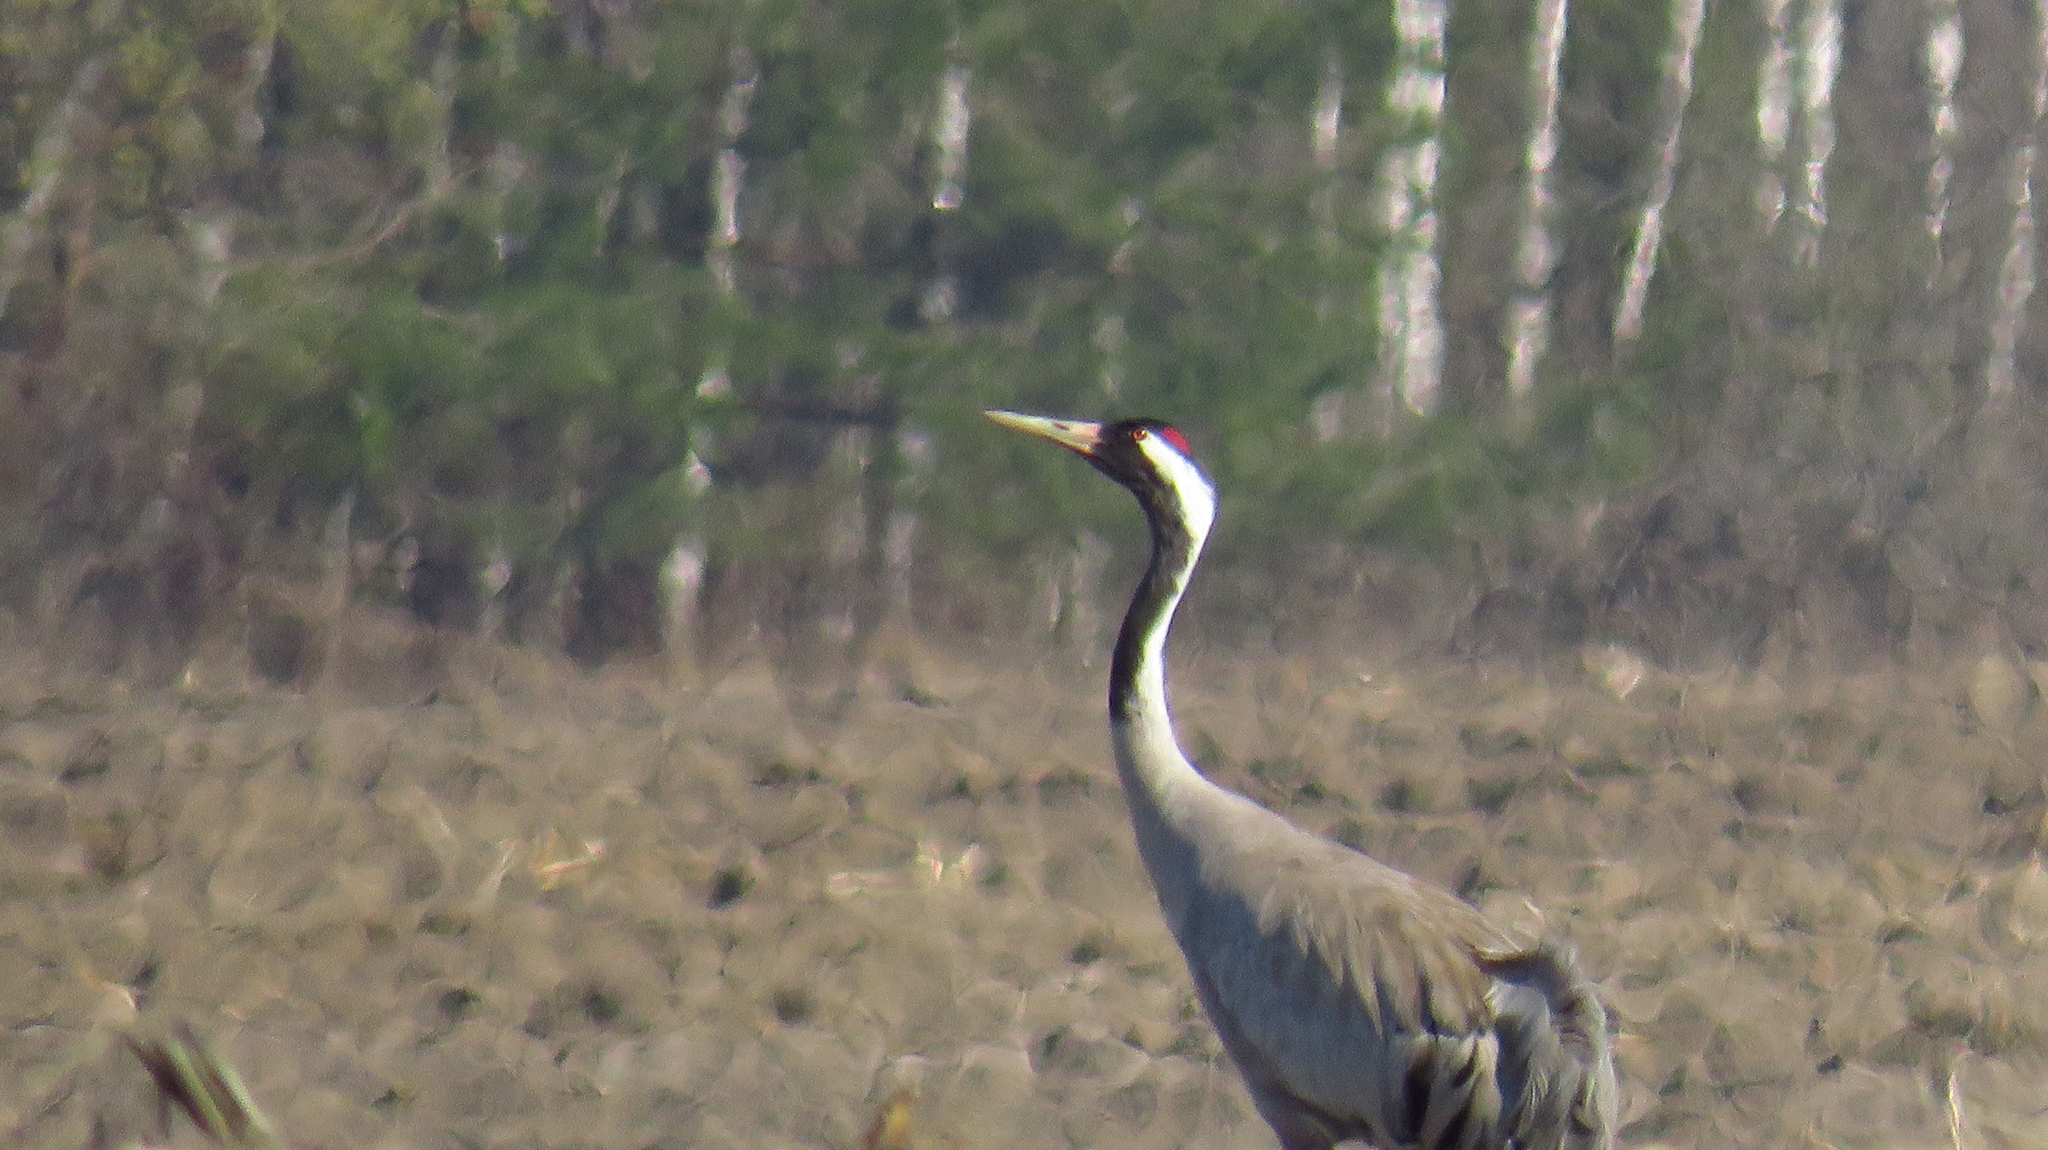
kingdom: Animalia
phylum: Chordata
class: Aves
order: Gruiformes
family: Gruidae
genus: Grus
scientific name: Grus grus
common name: Common crane
